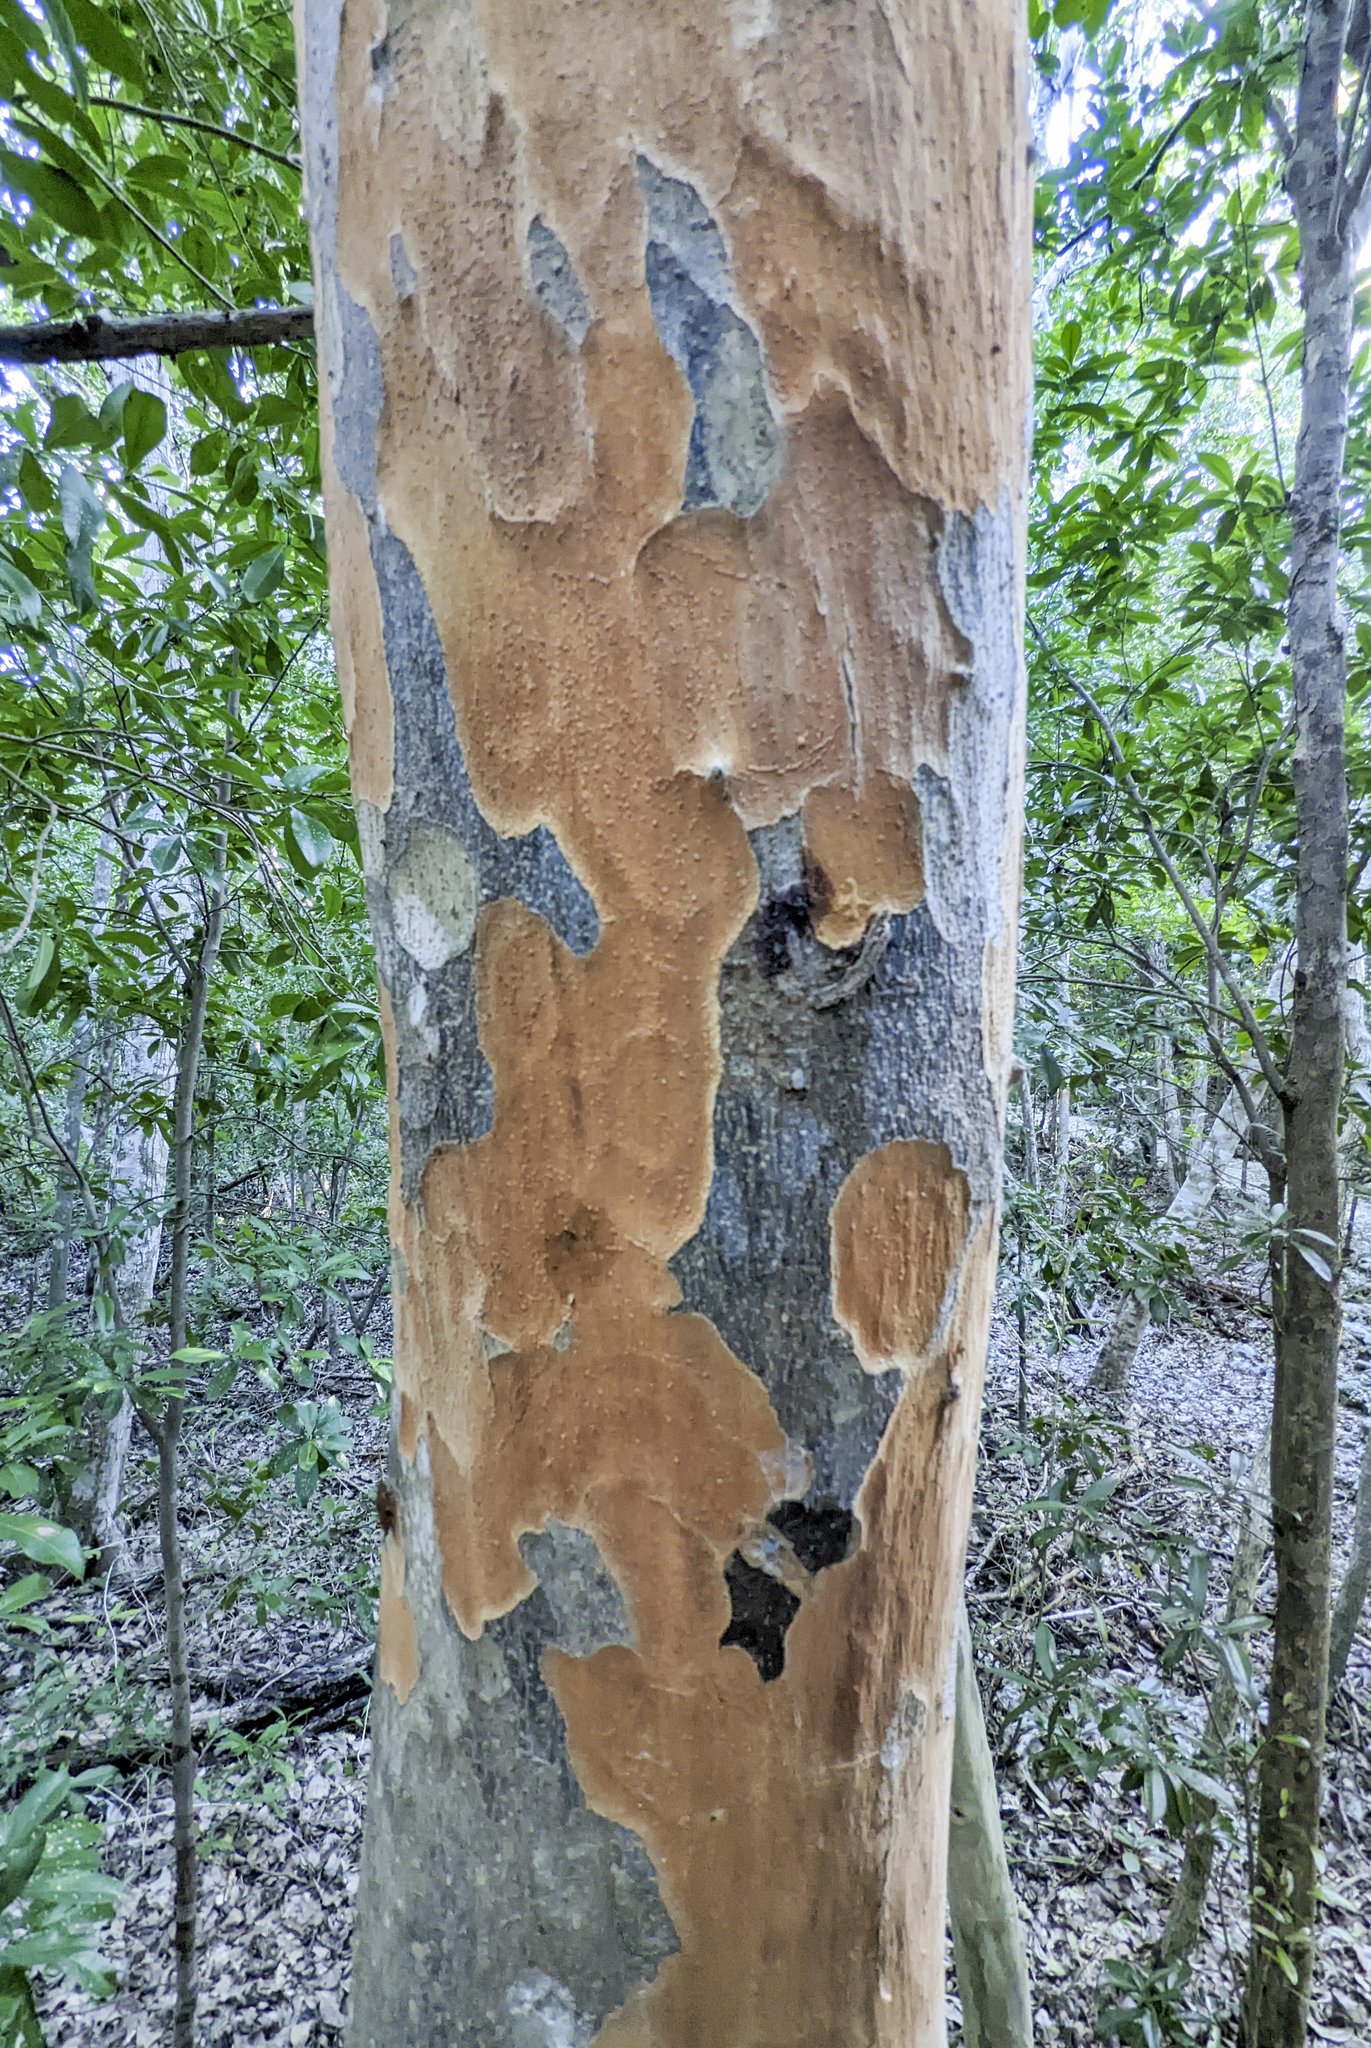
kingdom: Plantae
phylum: Tracheophyta
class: Magnoliopsida
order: Sapindales
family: Anacardiaceae
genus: Metopium
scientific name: Metopium toxiferum
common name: Florida poisontree
